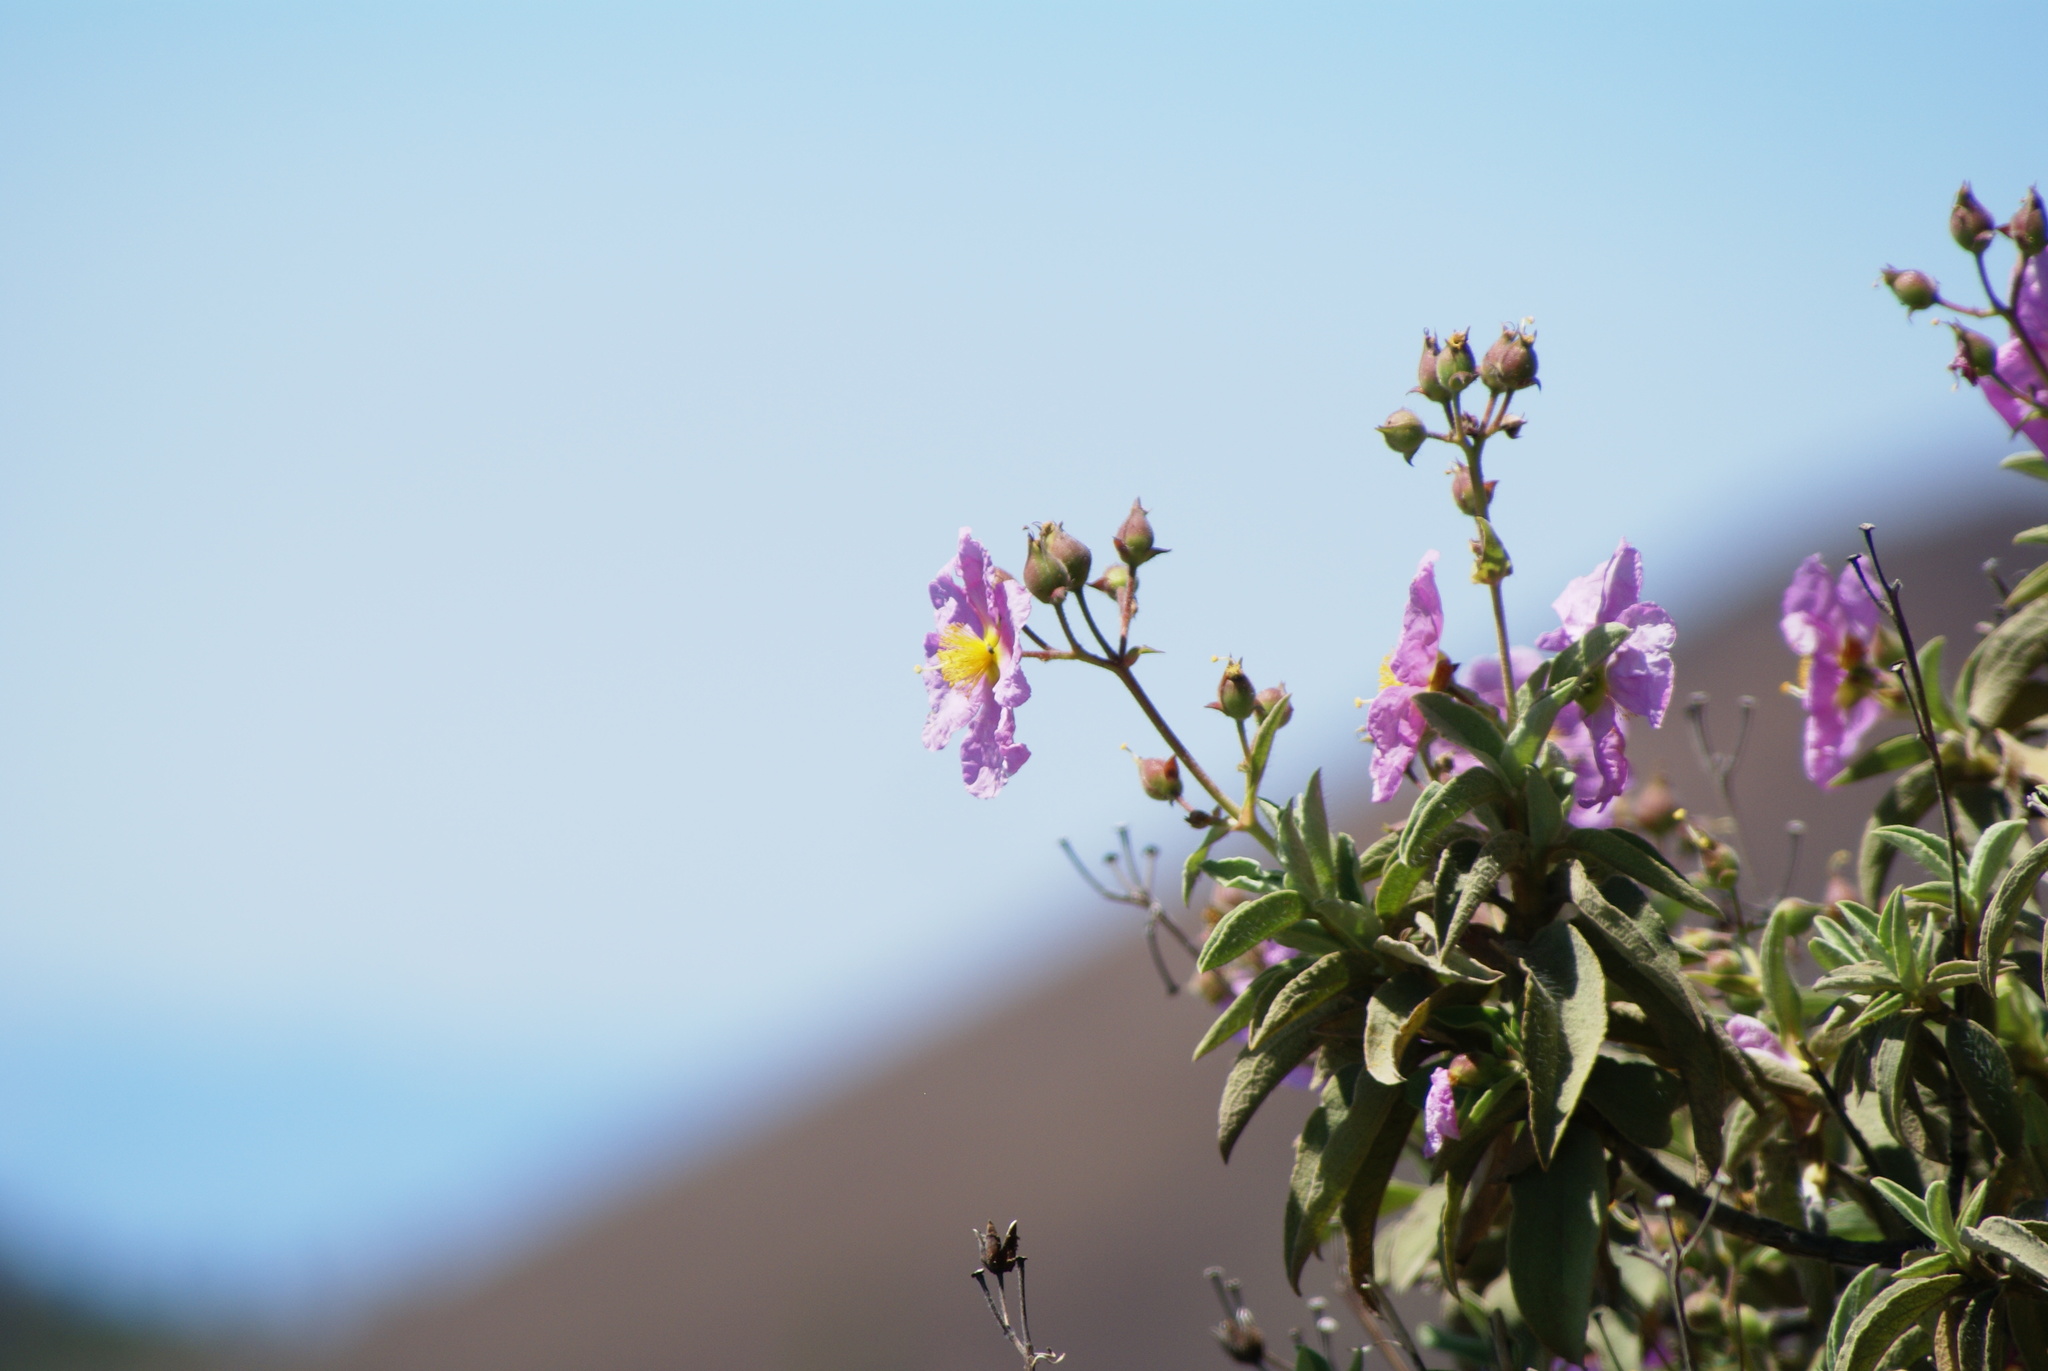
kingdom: Plantae
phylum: Tracheophyta
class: Magnoliopsida
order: Malvales
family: Cistaceae
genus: Cistus
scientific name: Cistus symphytifolius
